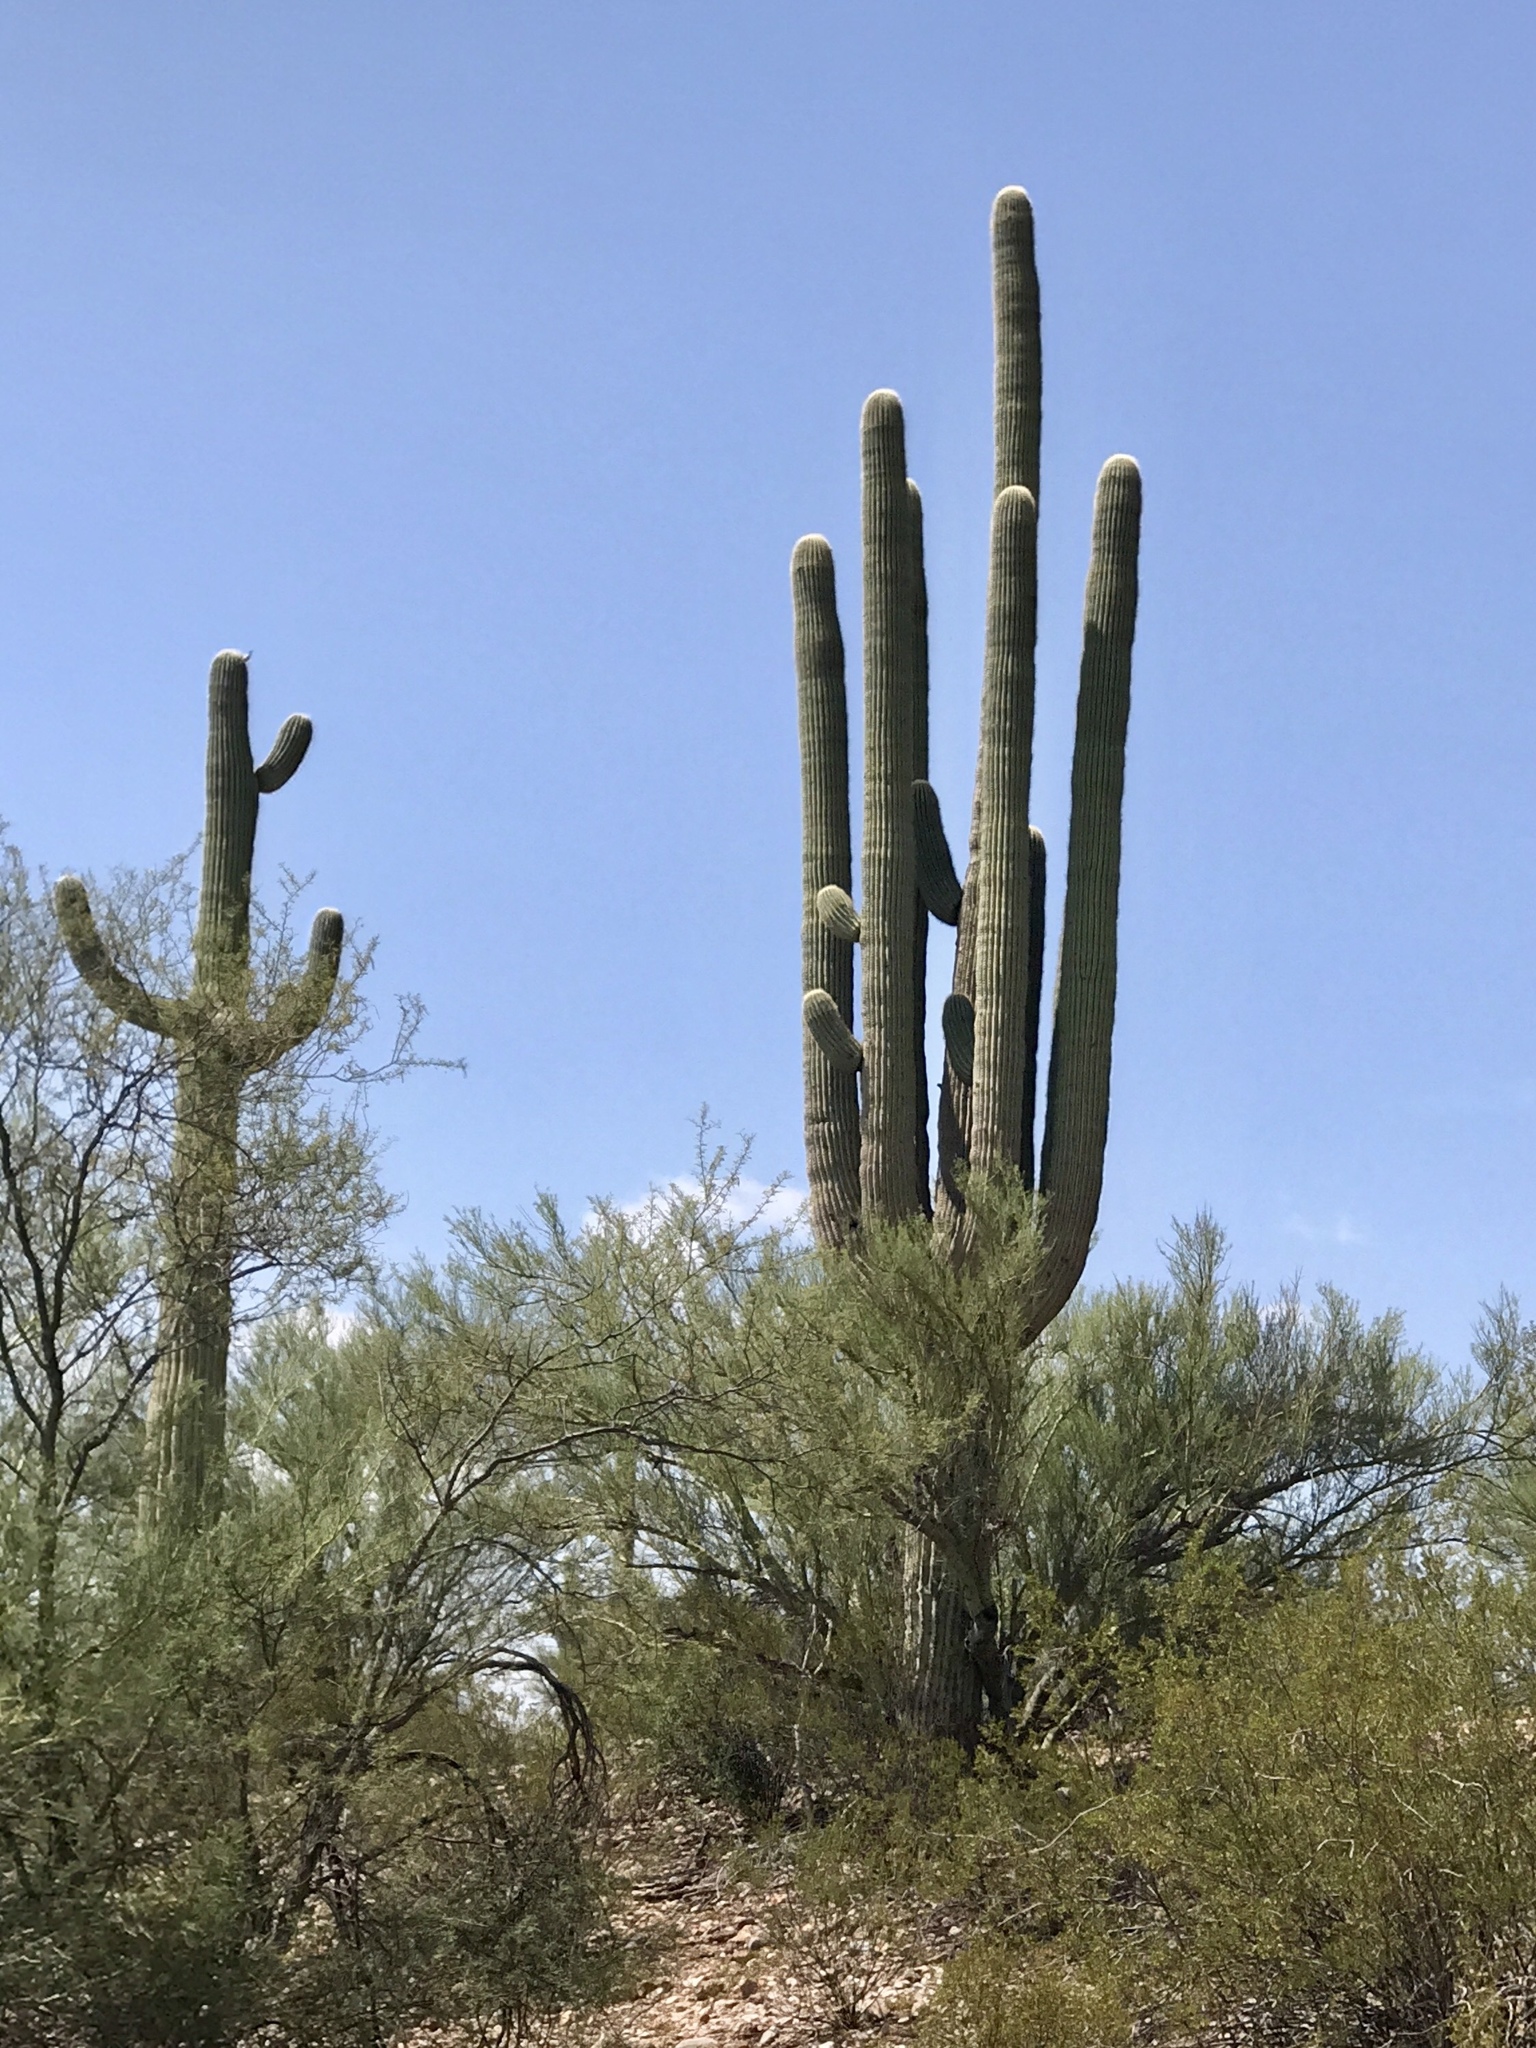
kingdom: Plantae
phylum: Tracheophyta
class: Magnoliopsida
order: Caryophyllales
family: Cactaceae
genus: Carnegiea
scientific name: Carnegiea gigantea
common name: Saguaro
